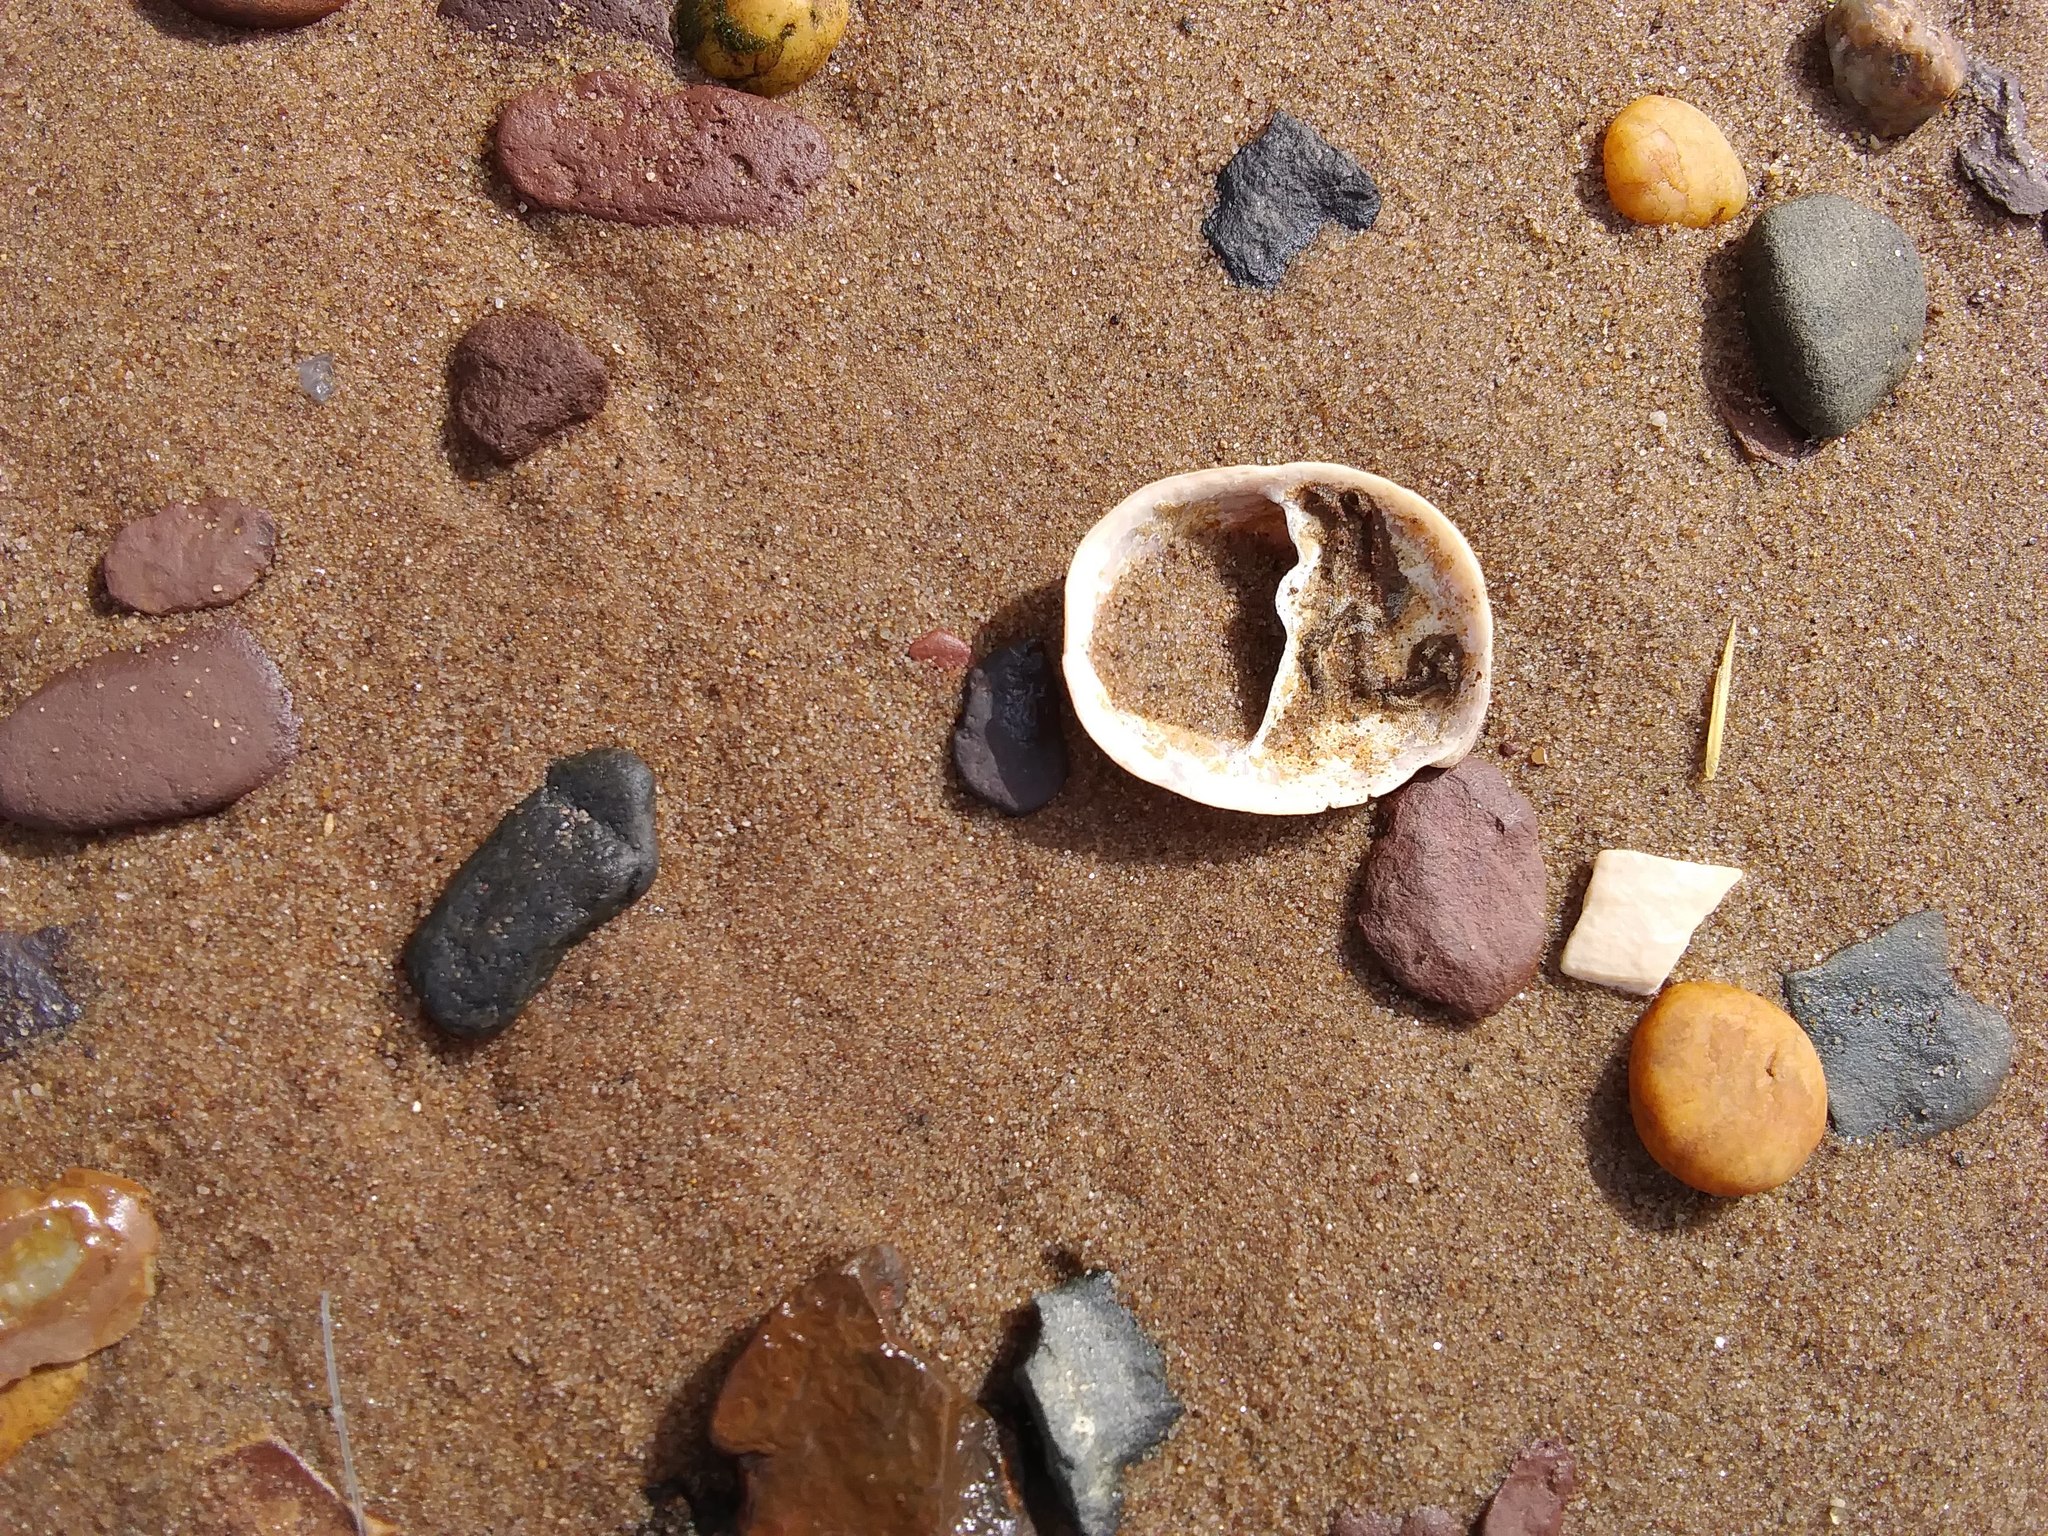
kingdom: Animalia
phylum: Mollusca
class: Gastropoda
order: Littorinimorpha
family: Calyptraeidae
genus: Crepidula
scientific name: Crepidula fornicata
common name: Slipper limpet
